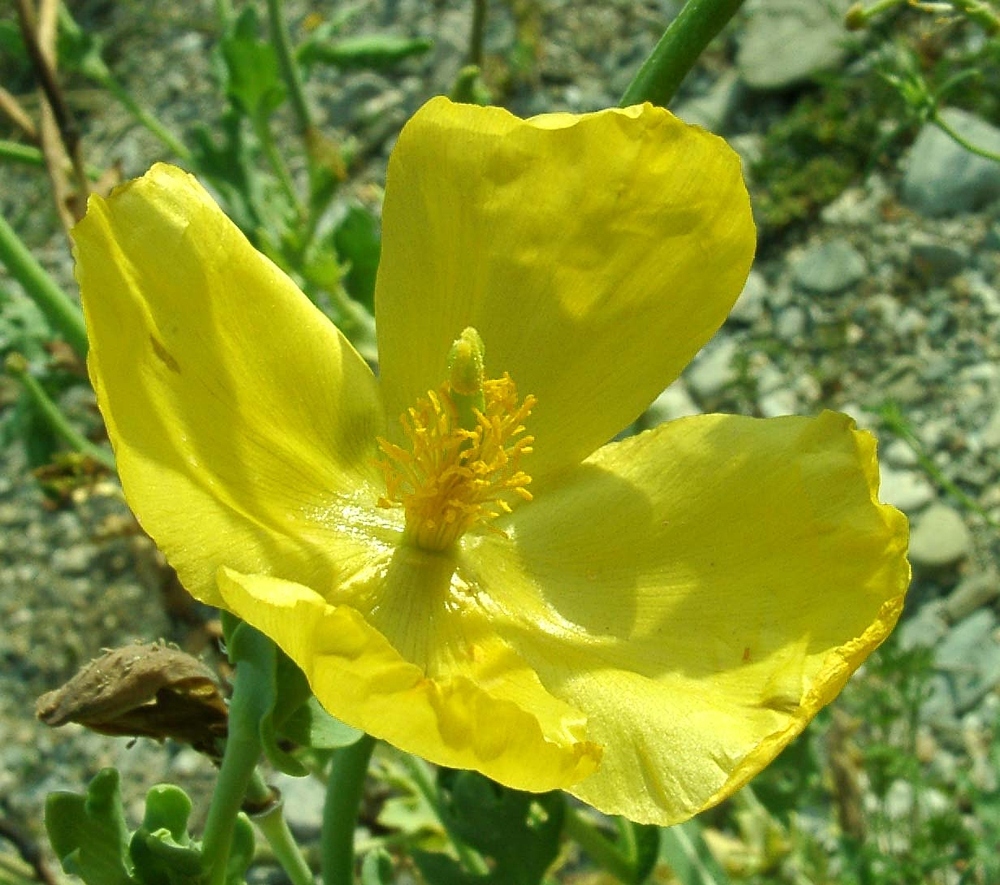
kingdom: Plantae
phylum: Tracheophyta
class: Magnoliopsida
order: Ranunculales
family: Papaveraceae
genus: Glaucium
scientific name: Glaucium flavum
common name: Yellow horned-poppy
